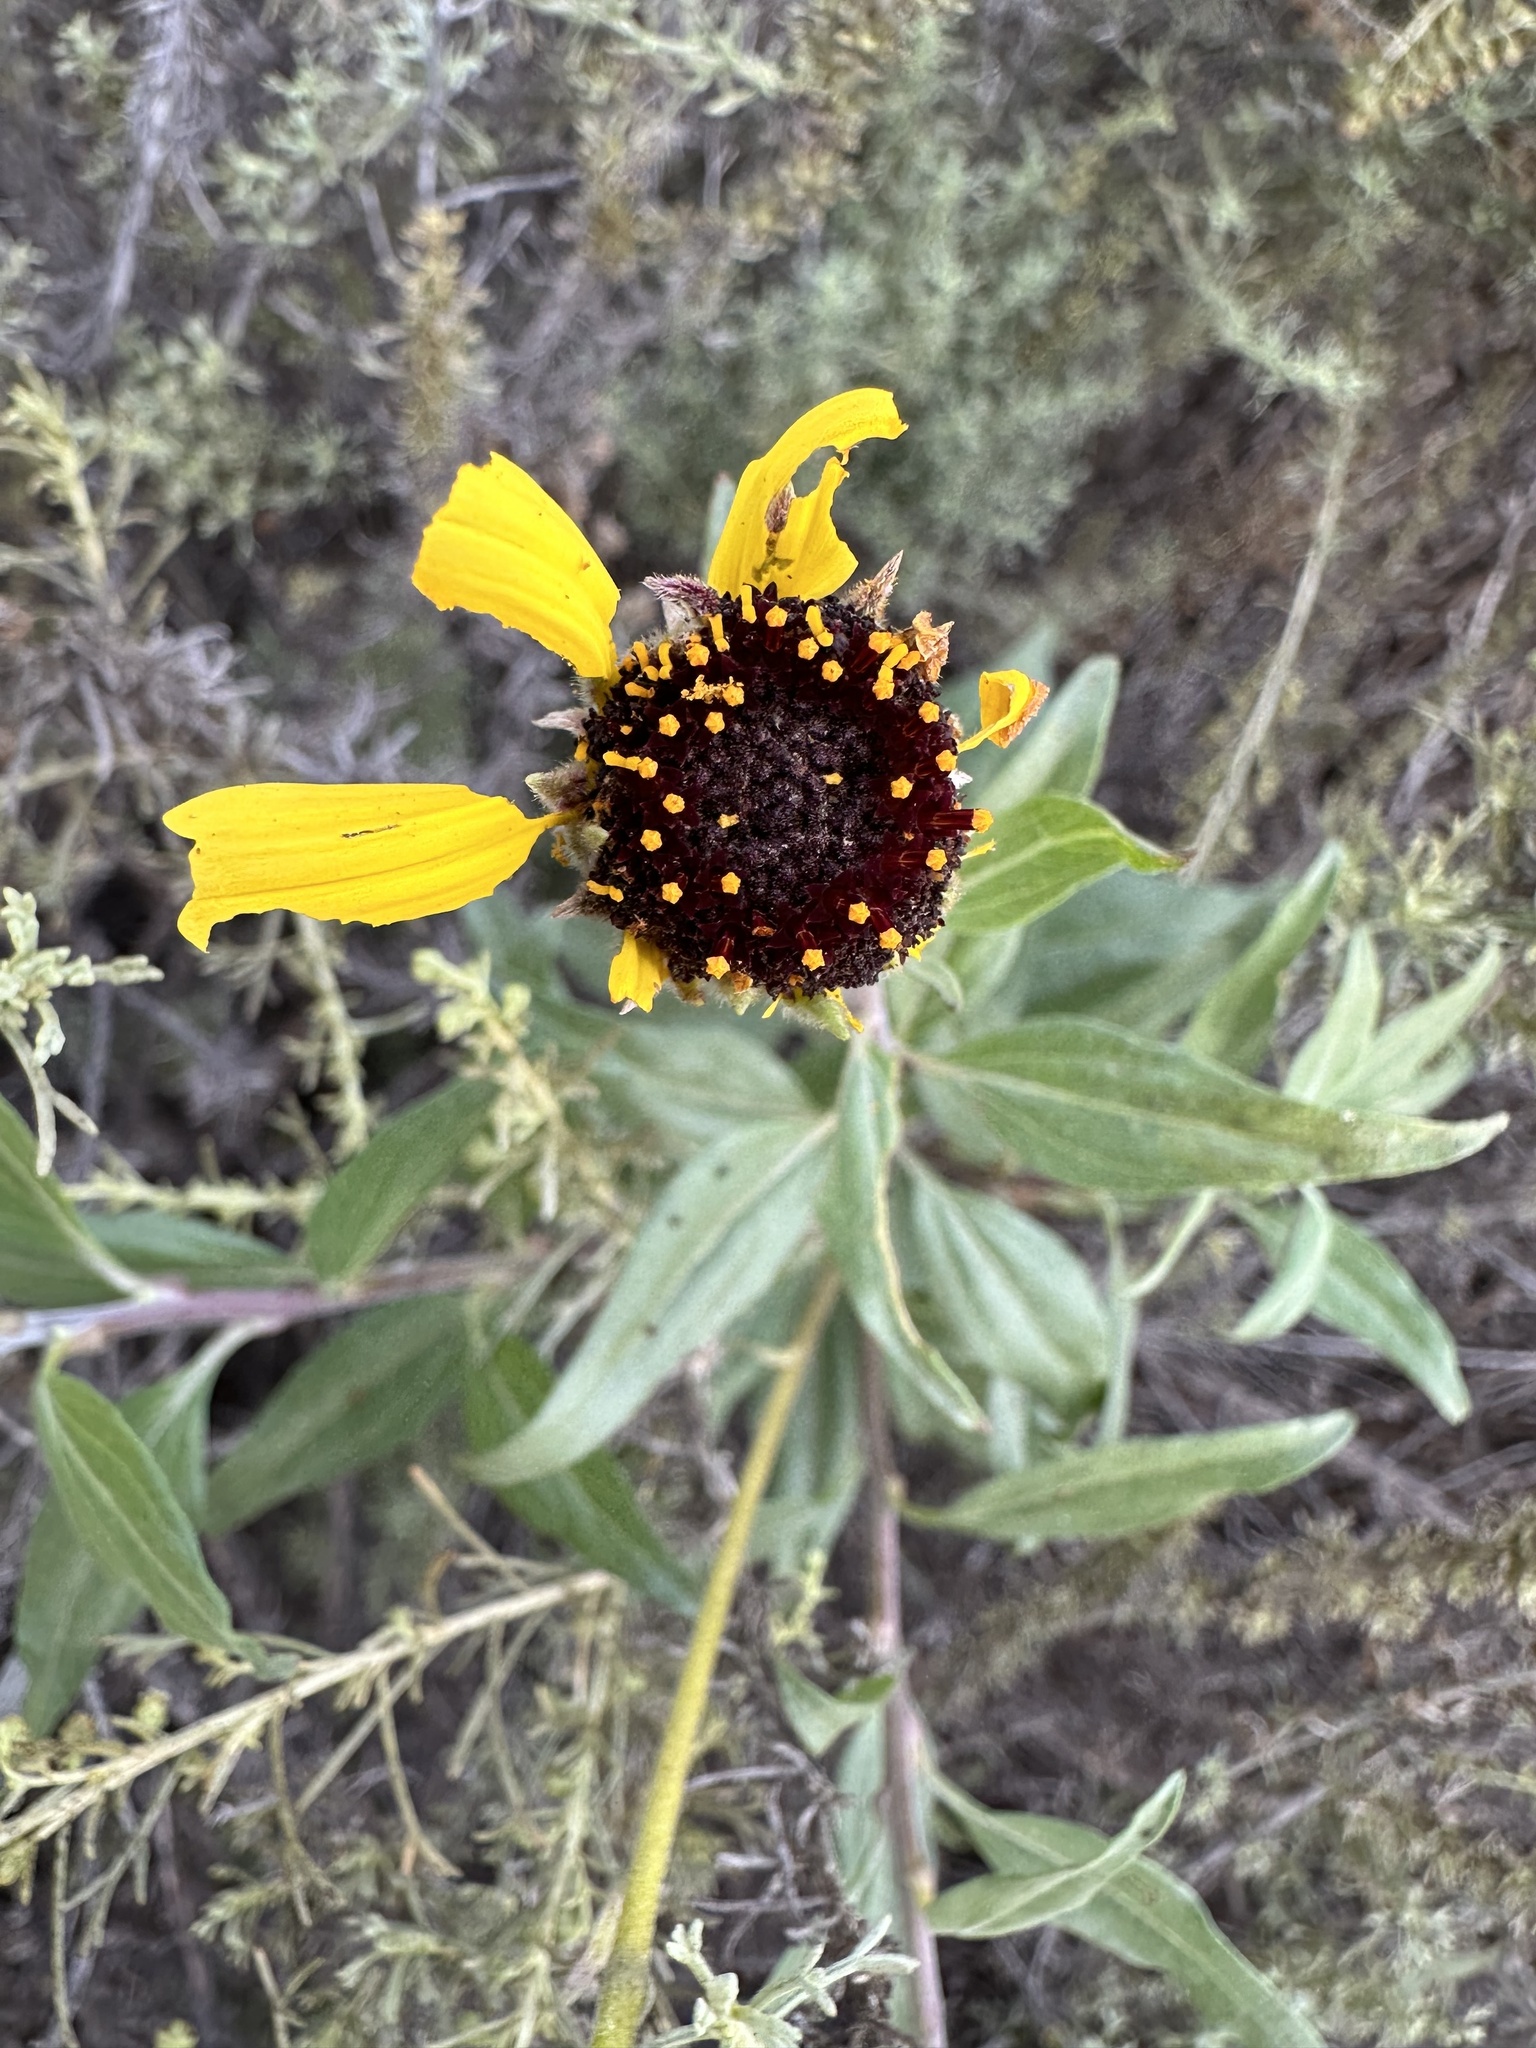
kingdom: Plantae
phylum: Tracheophyta
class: Magnoliopsida
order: Asterales
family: Asteraceae
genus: Encelia
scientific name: Encelia californica
